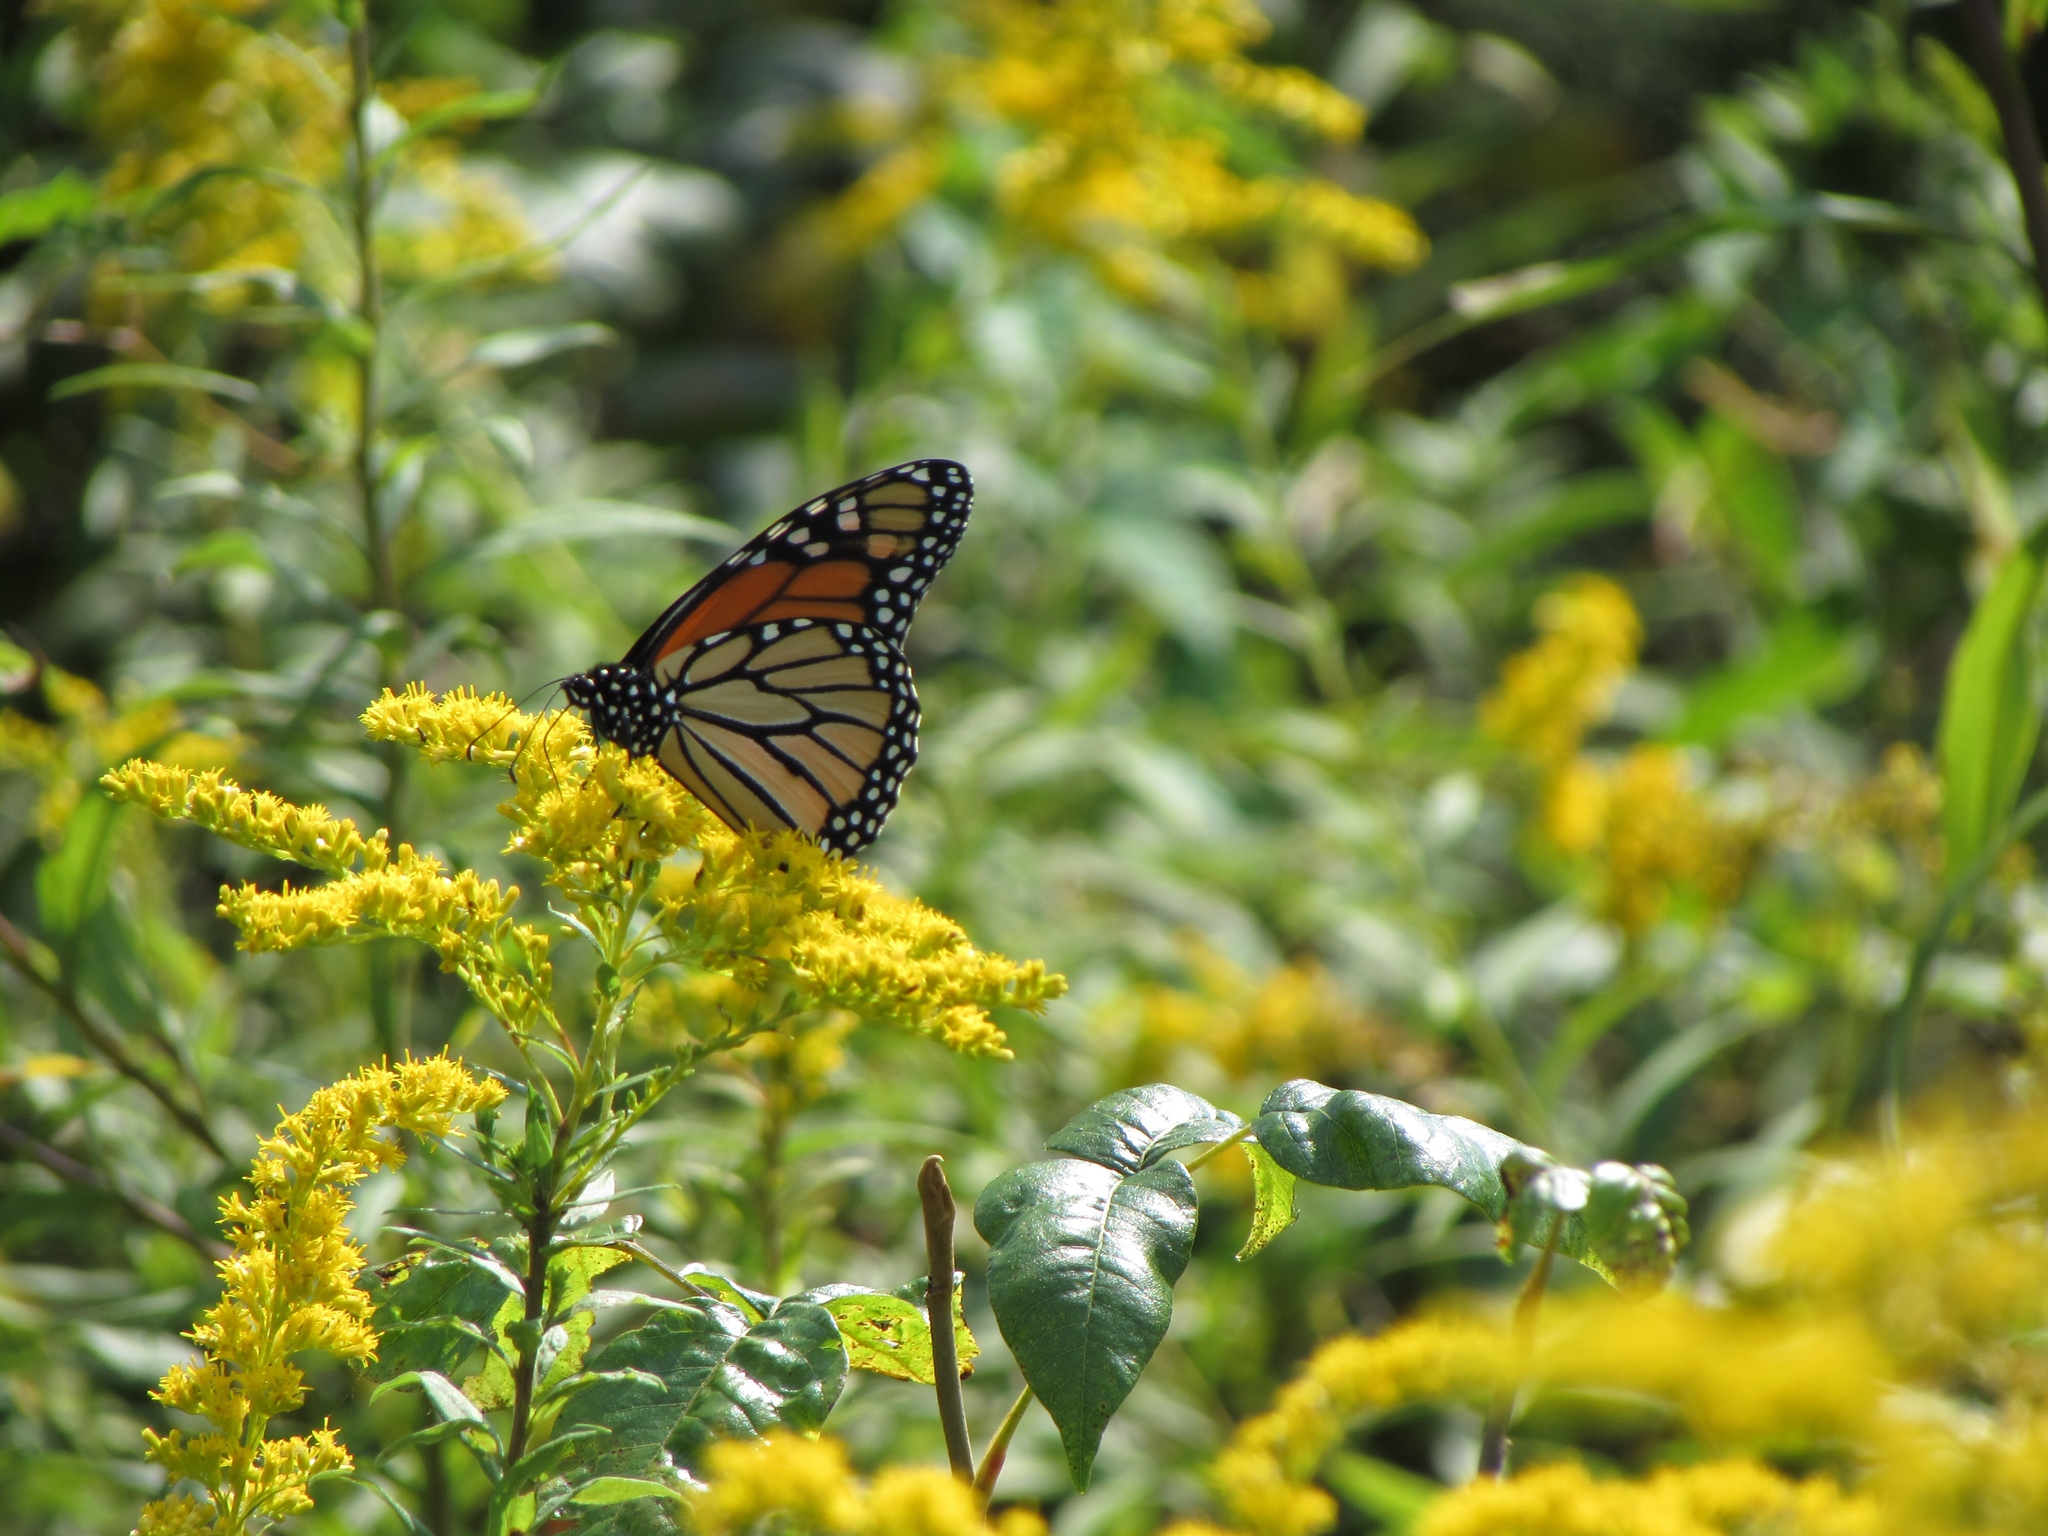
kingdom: Animalia
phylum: Arthropoda
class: Insecta
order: Lepidoptera
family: Nymphalidae
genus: Danaus
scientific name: Danaus plexippus
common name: Monarch
